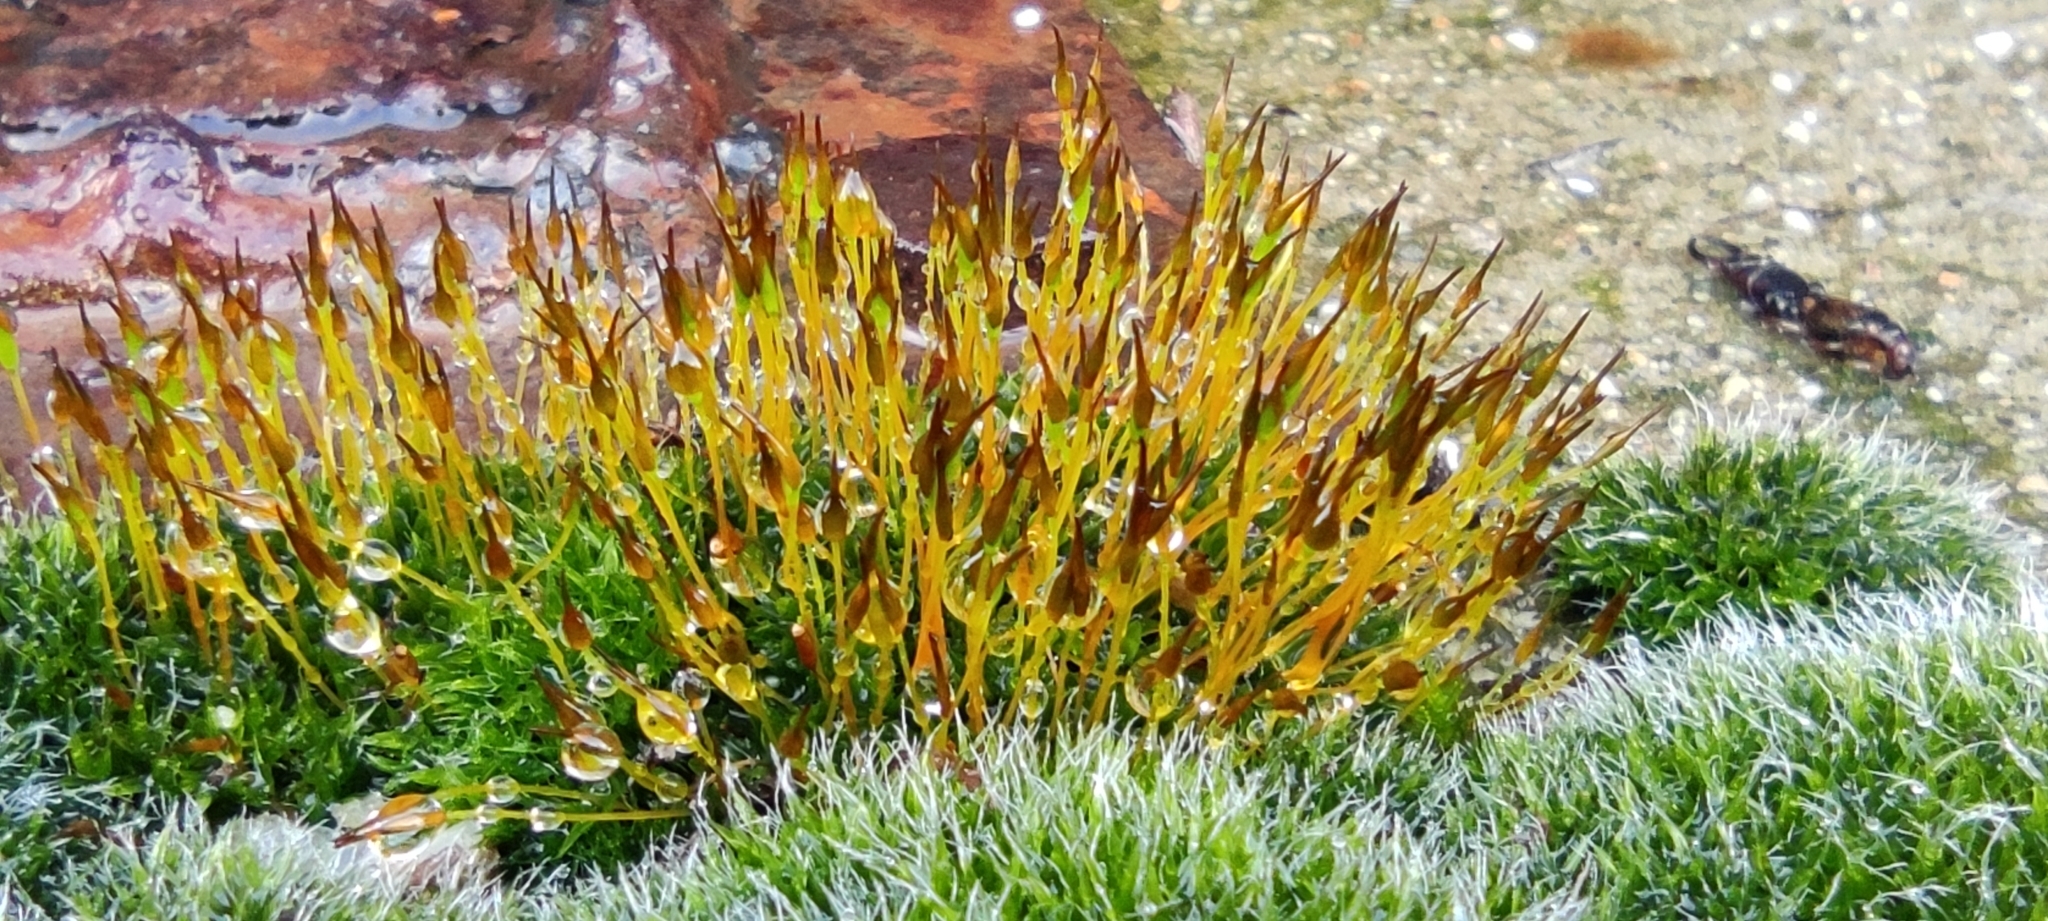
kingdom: Plantae
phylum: Bryophyta
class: Bryopsida
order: Grimmiales
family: Grimmiaceae
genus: Grimmia
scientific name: Grimmia pulvinata
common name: Grey-cushioned grimmia
